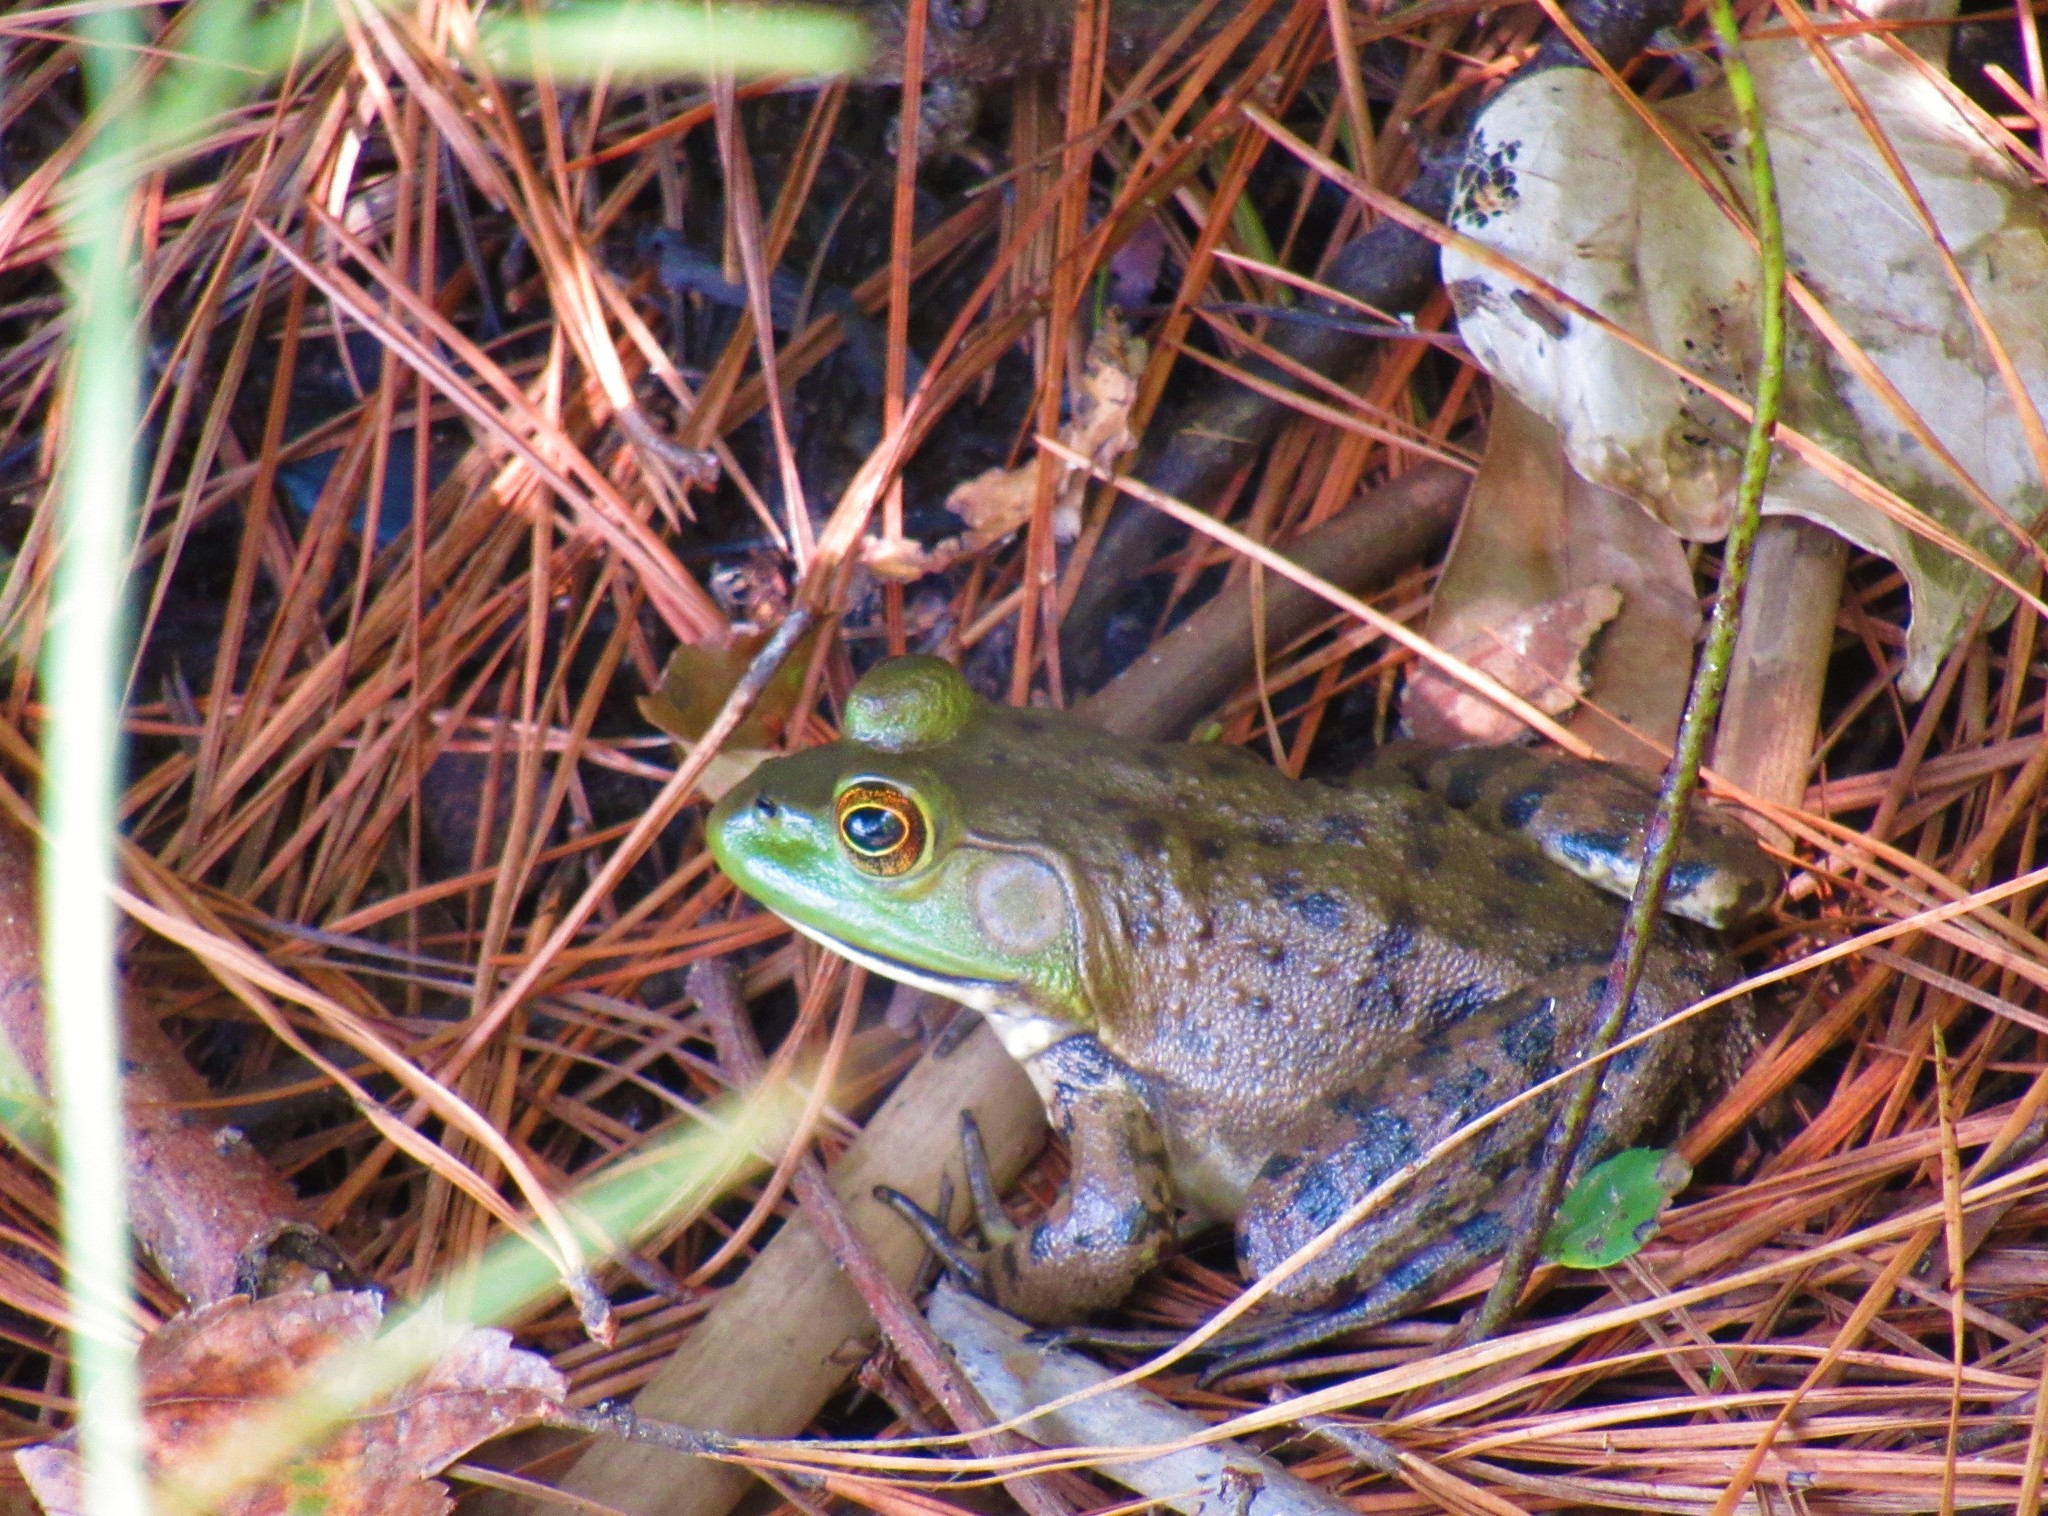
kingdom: Animalia
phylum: Chordata
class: Amphibia
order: Anura
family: Ranidae
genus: Lithobates
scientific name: Lithobates catesbeianus
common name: American bullfrog
